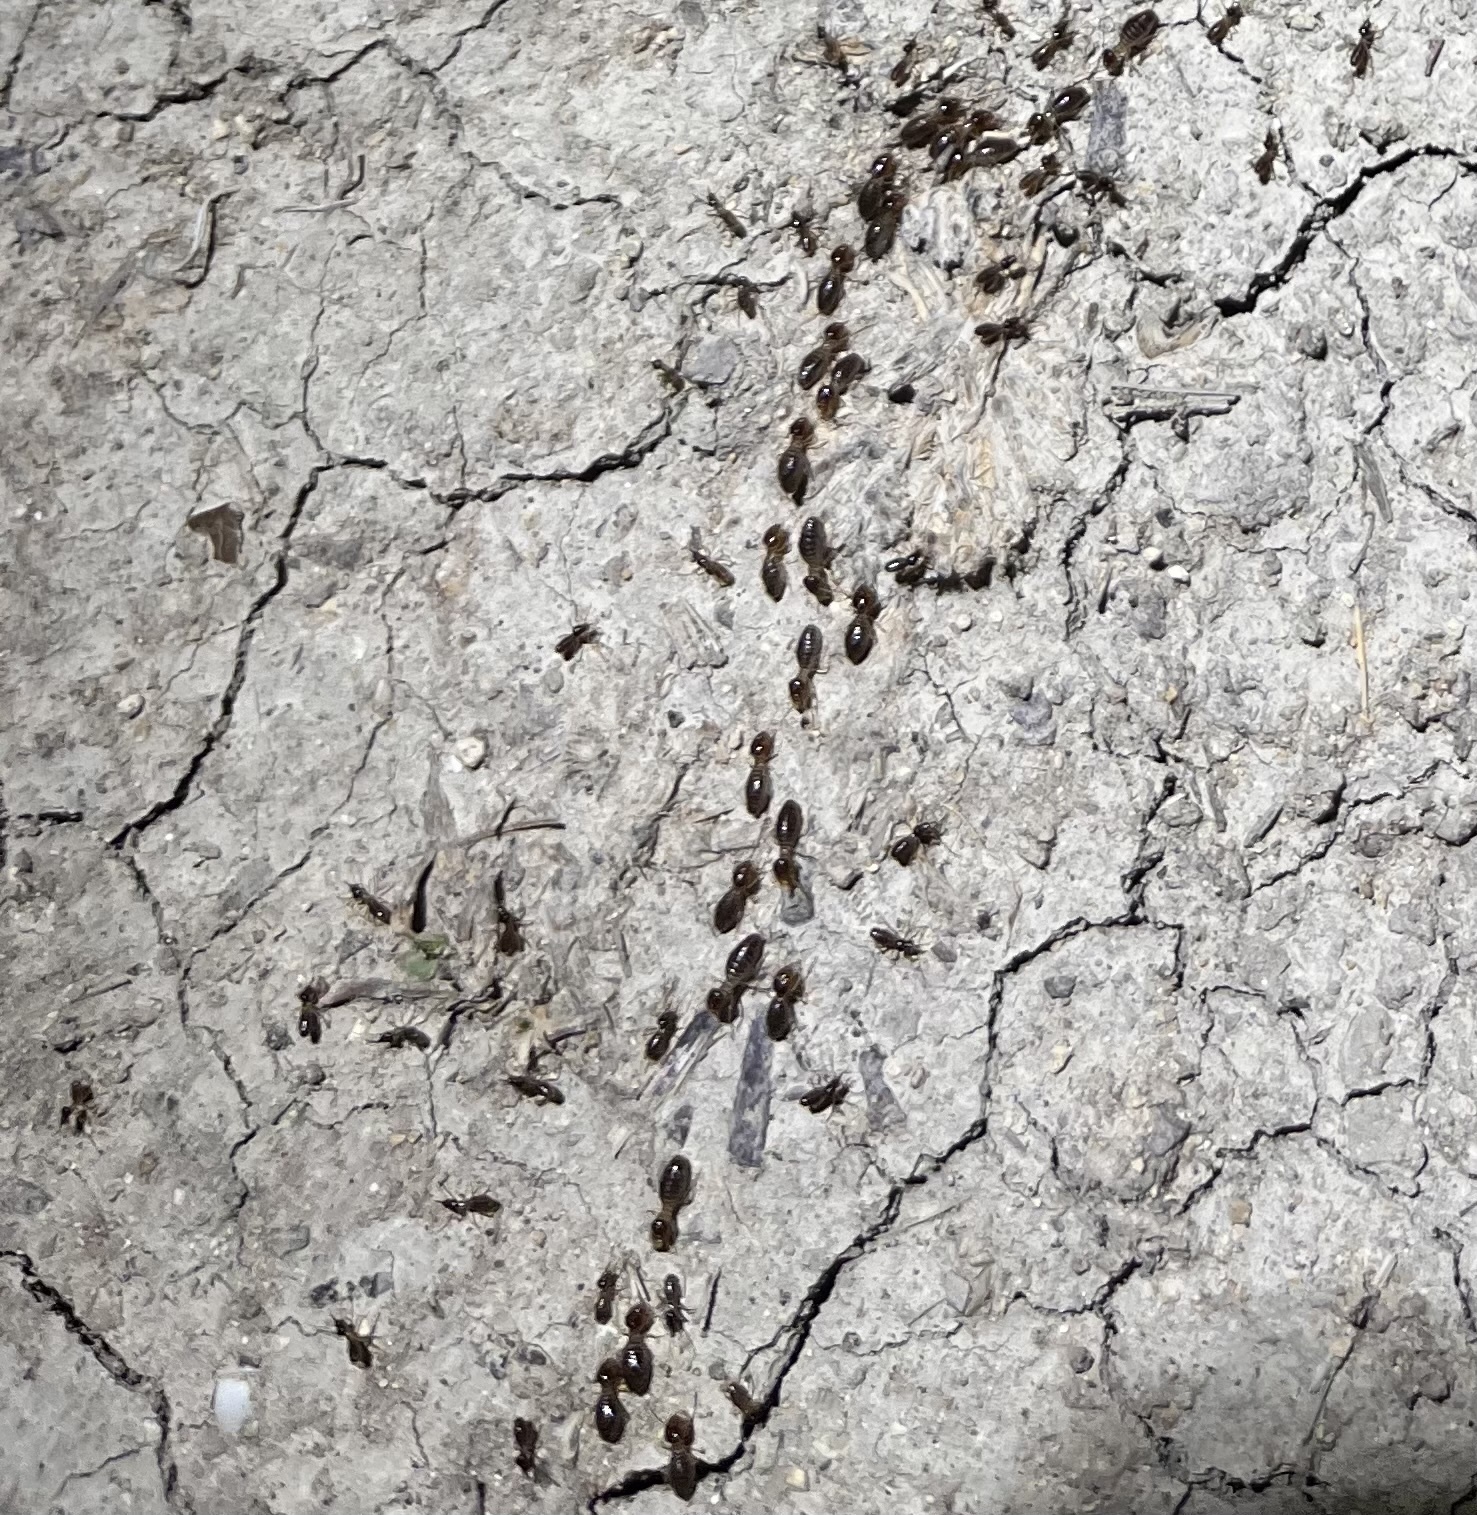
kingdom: Animalia
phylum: Arthropoda
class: Insecta
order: Blattodea
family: Termitidae
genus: Tenuirostritermes
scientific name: Tenuirostritermes cinereus
